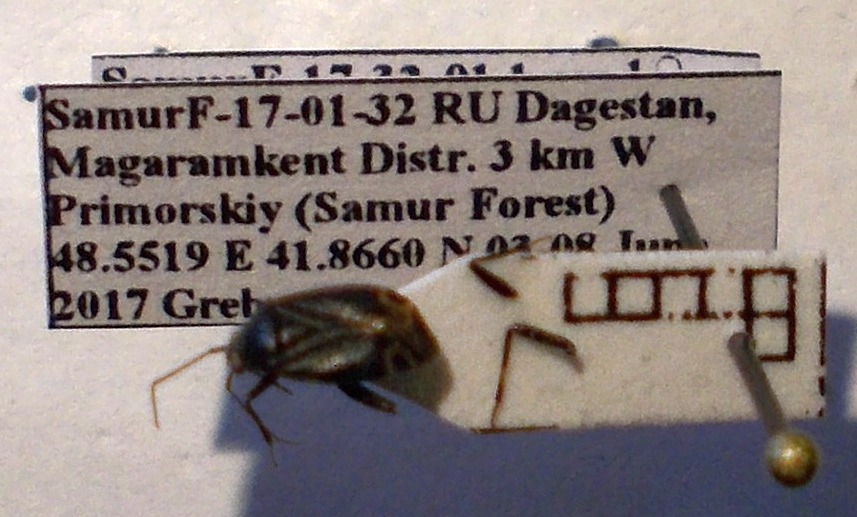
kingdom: Animalia
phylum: Arthropoda
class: Insecta
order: Hemiptera
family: Miridae
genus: Polymerus
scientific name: Polymerus nigritus
